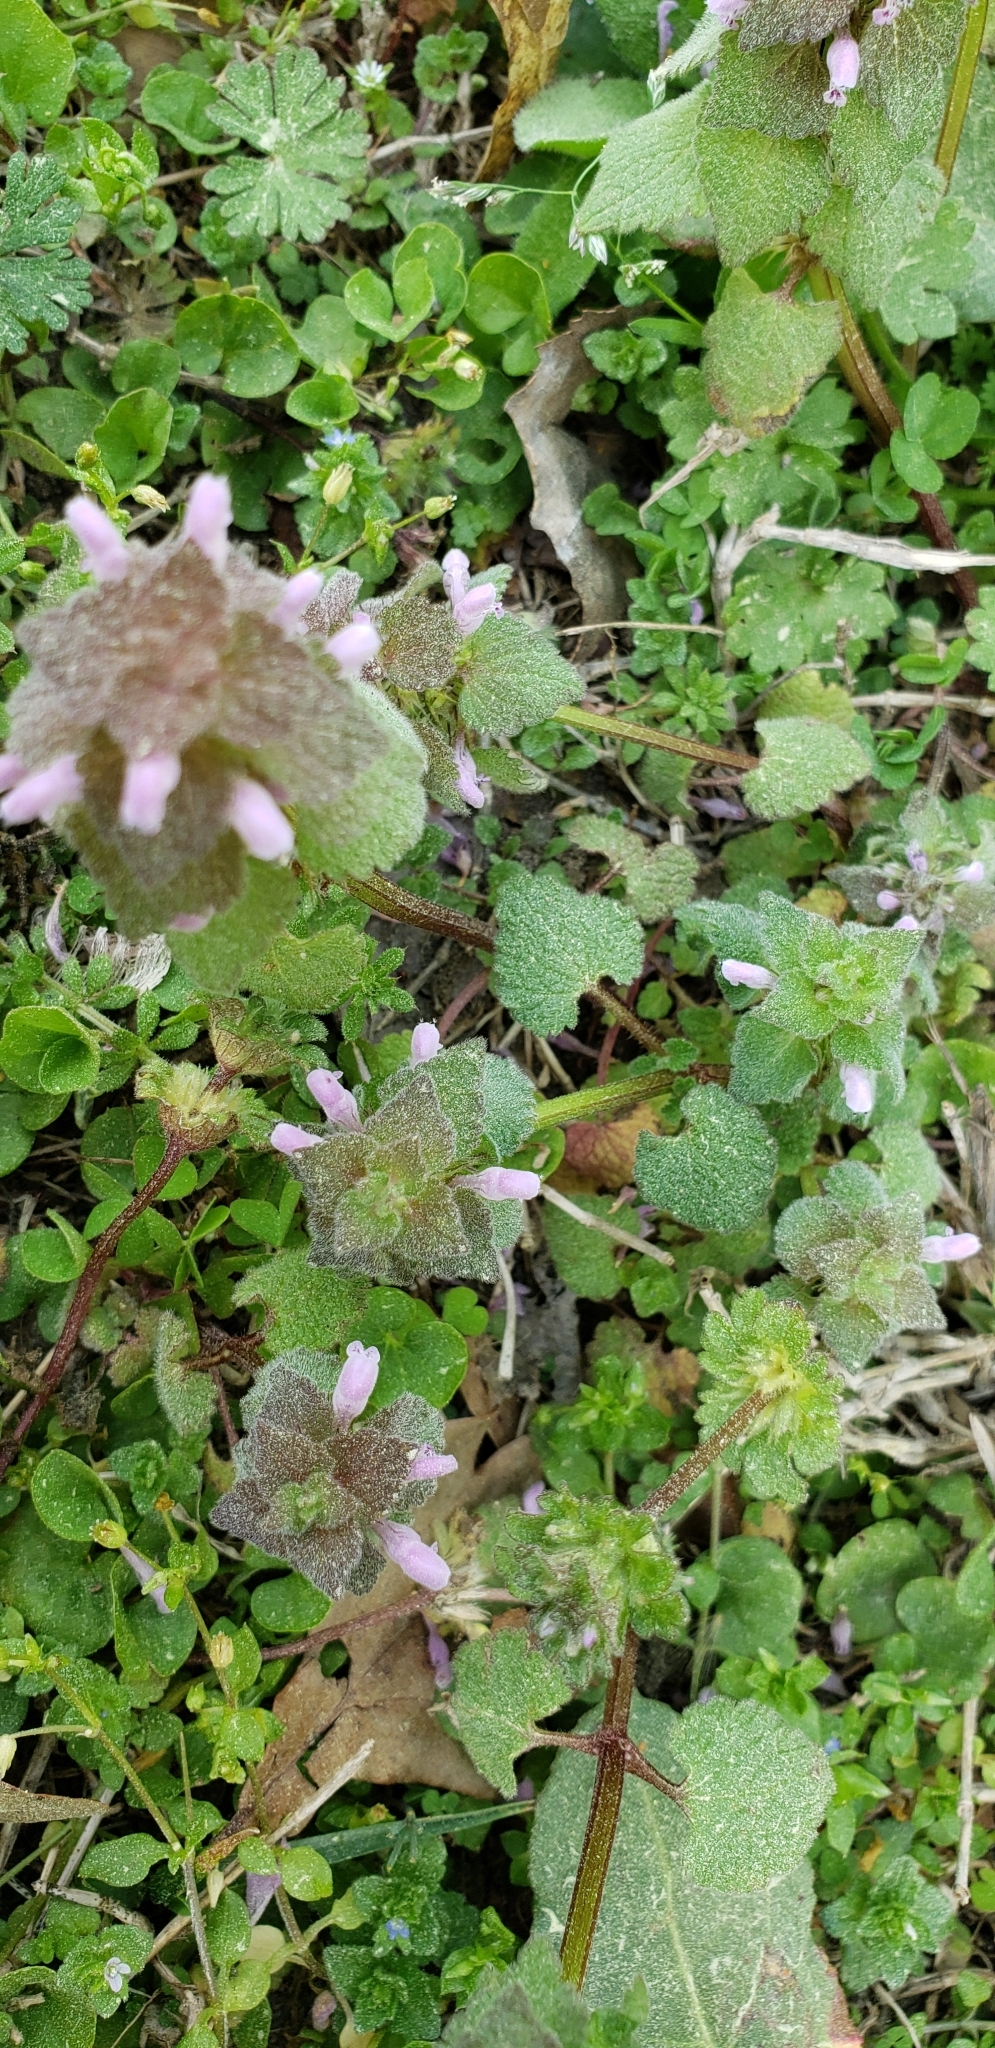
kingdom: Plantae
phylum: Tracheophyta
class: Magnoliopsida
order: Lamiales
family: Lamiaceae
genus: Lamium
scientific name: Lamium purpureum
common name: Red dead-nettle
